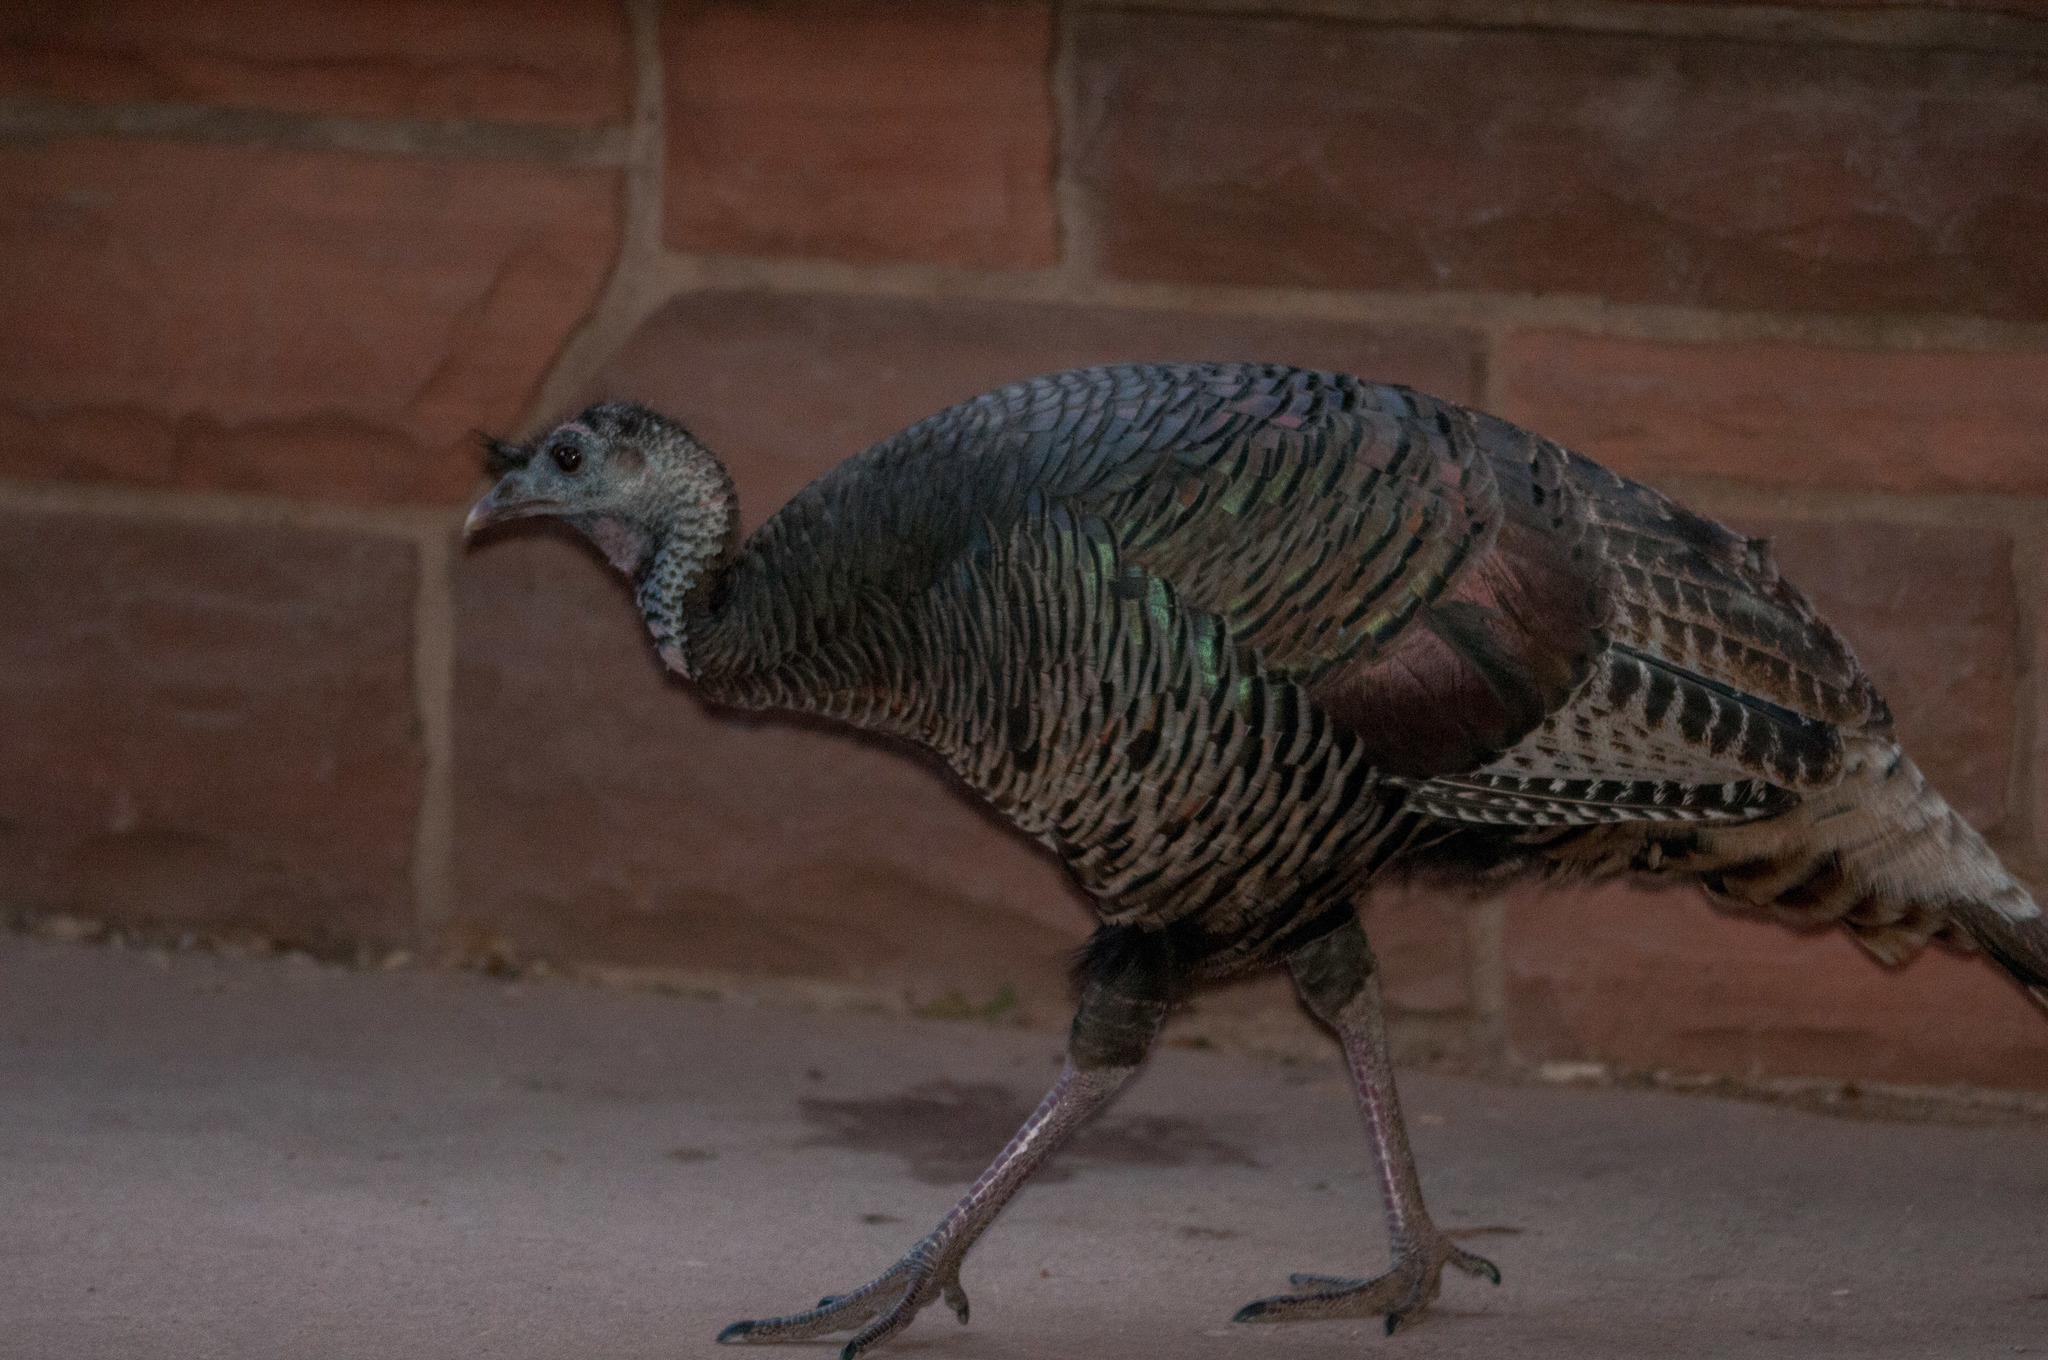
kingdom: Animalia
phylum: Chordata
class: Aves
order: Galliformes
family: Phasianidae
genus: Meleagris
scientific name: Meleagris gallopavo
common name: Wild turkey
